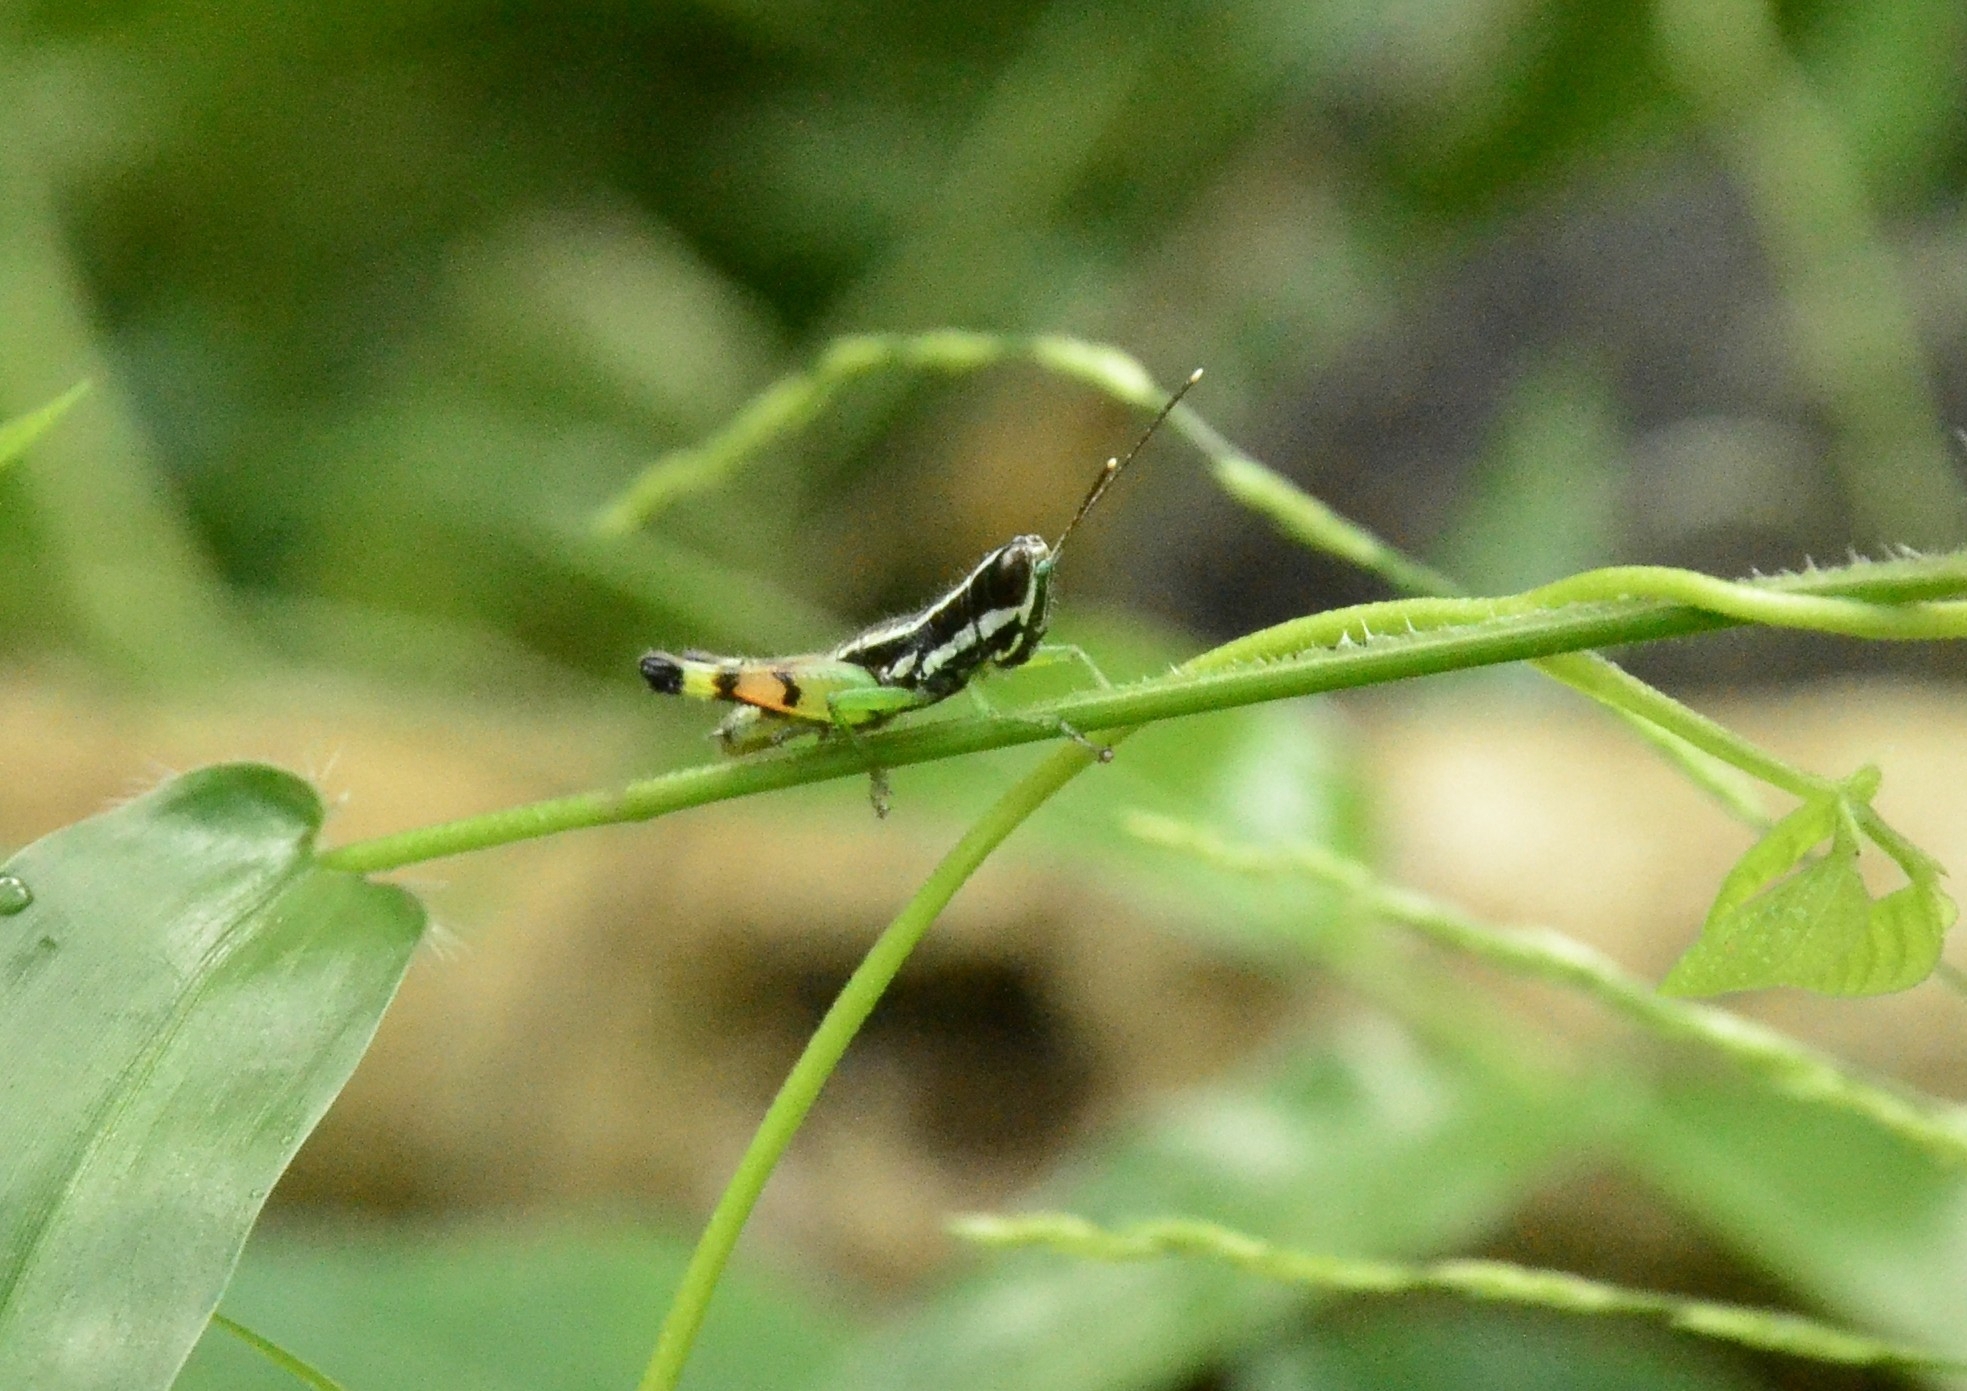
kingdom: Animalia
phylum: Arthropoda
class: Insecta
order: Orthoptera
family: Acrididae
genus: Chitaura
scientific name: Chitaura indica
